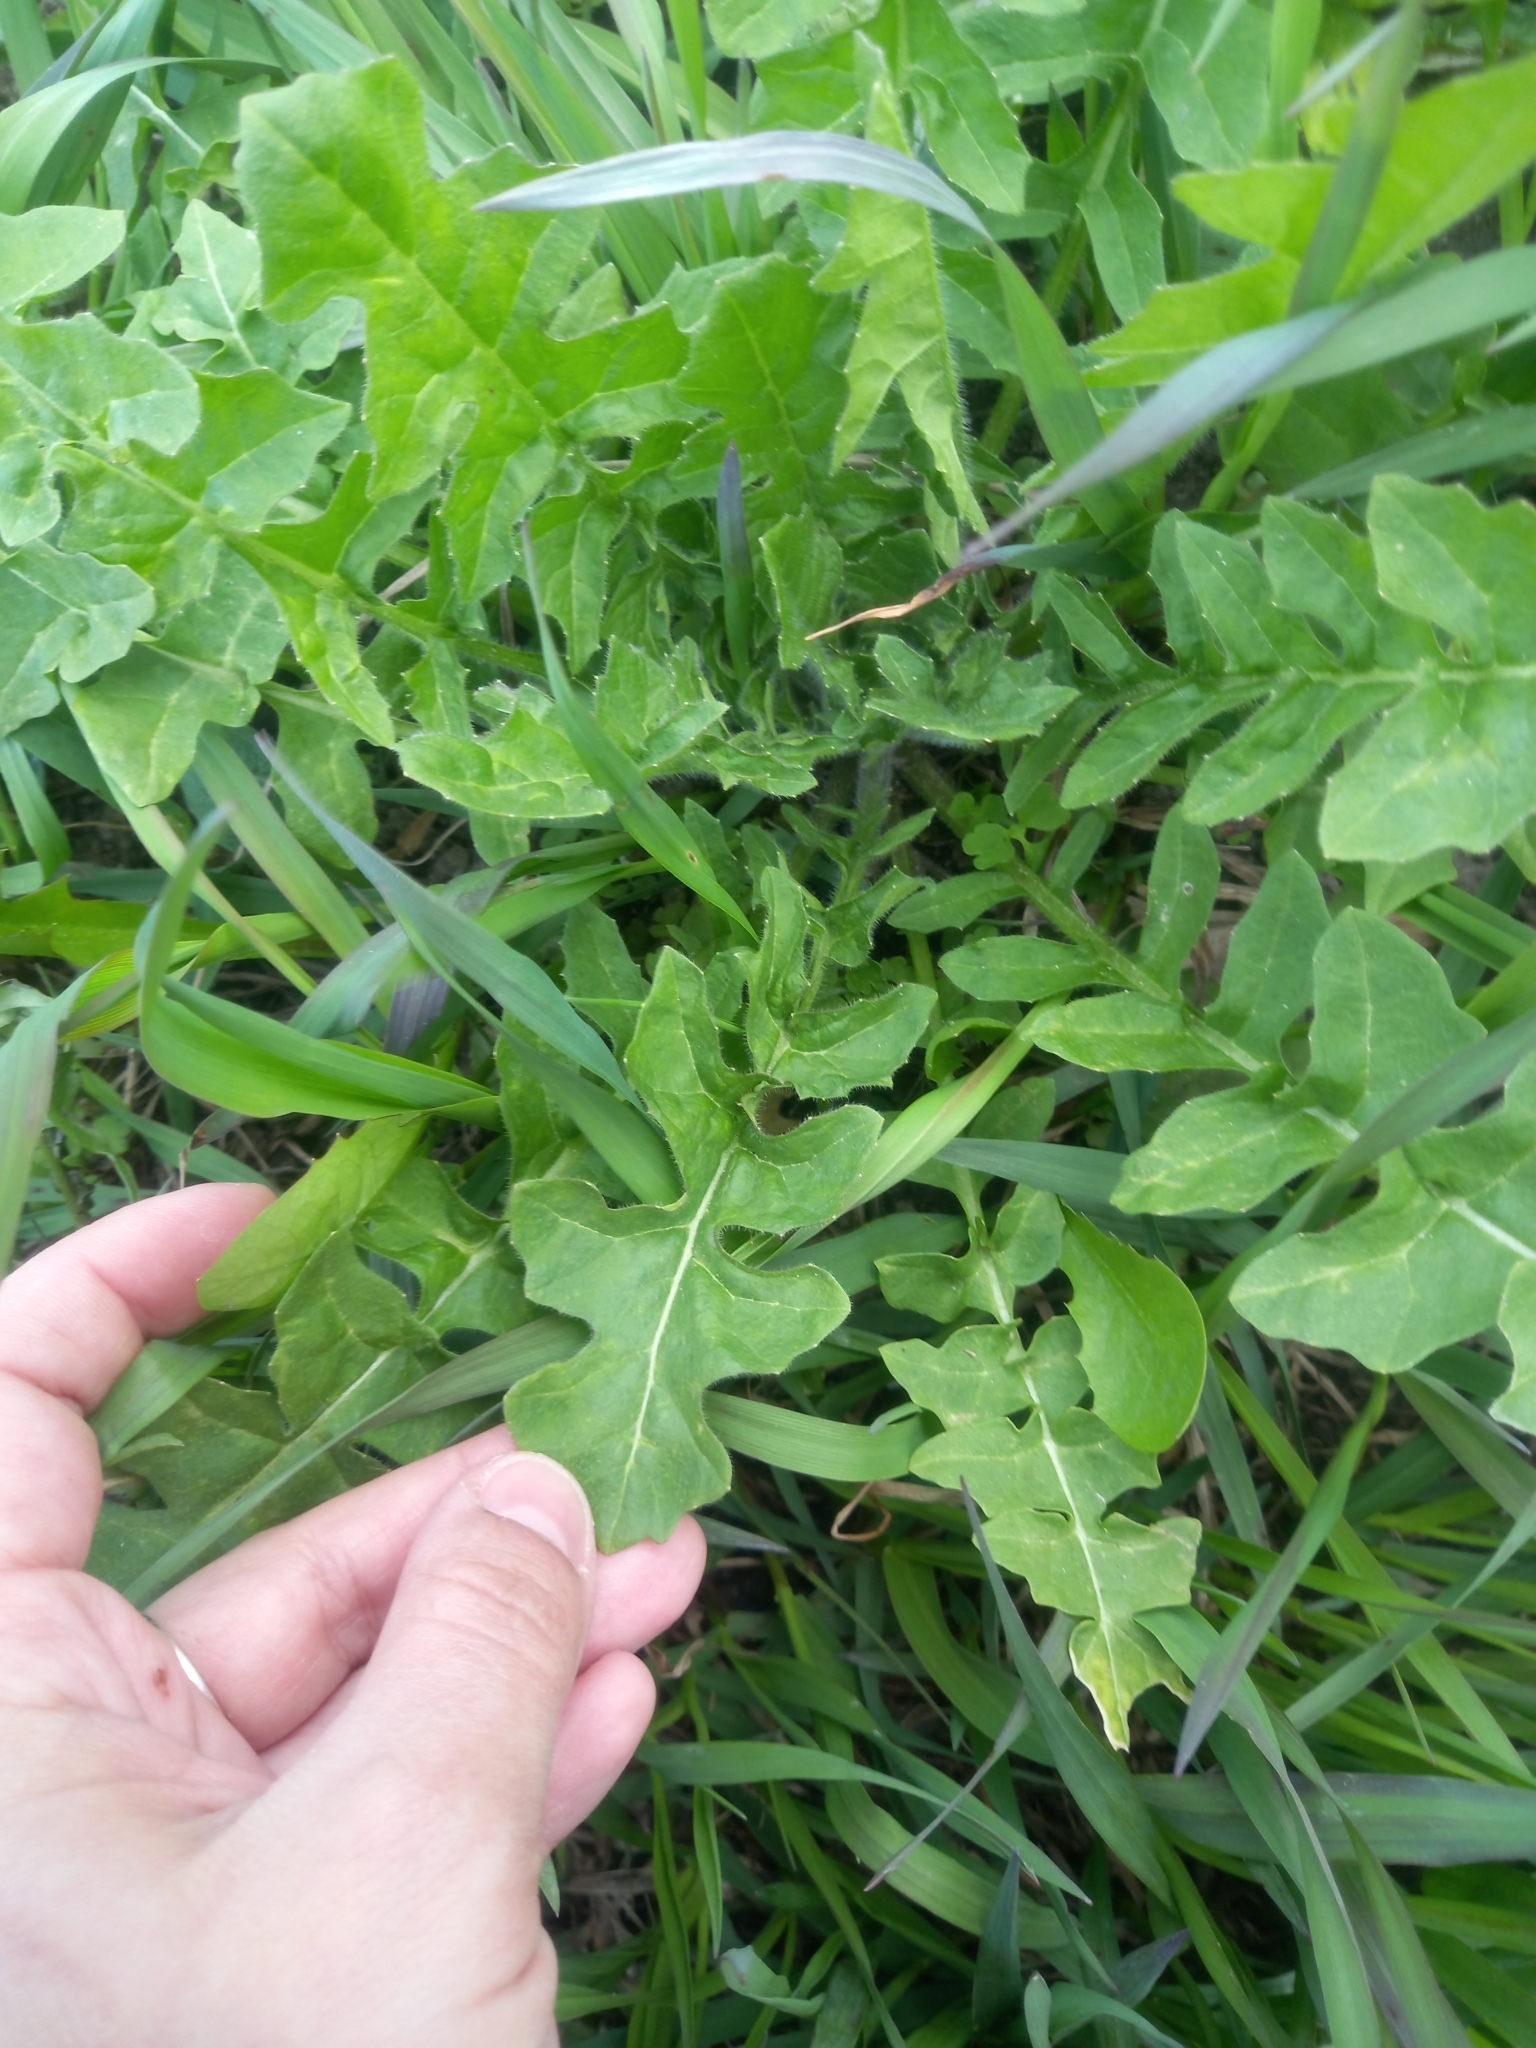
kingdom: Plantae
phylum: Tracheophyta
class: Magnoliopsida
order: Brassicales
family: Brassicaceae
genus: Sisymbrium
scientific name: Sisymbrium loeselii
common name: False london-rocket
